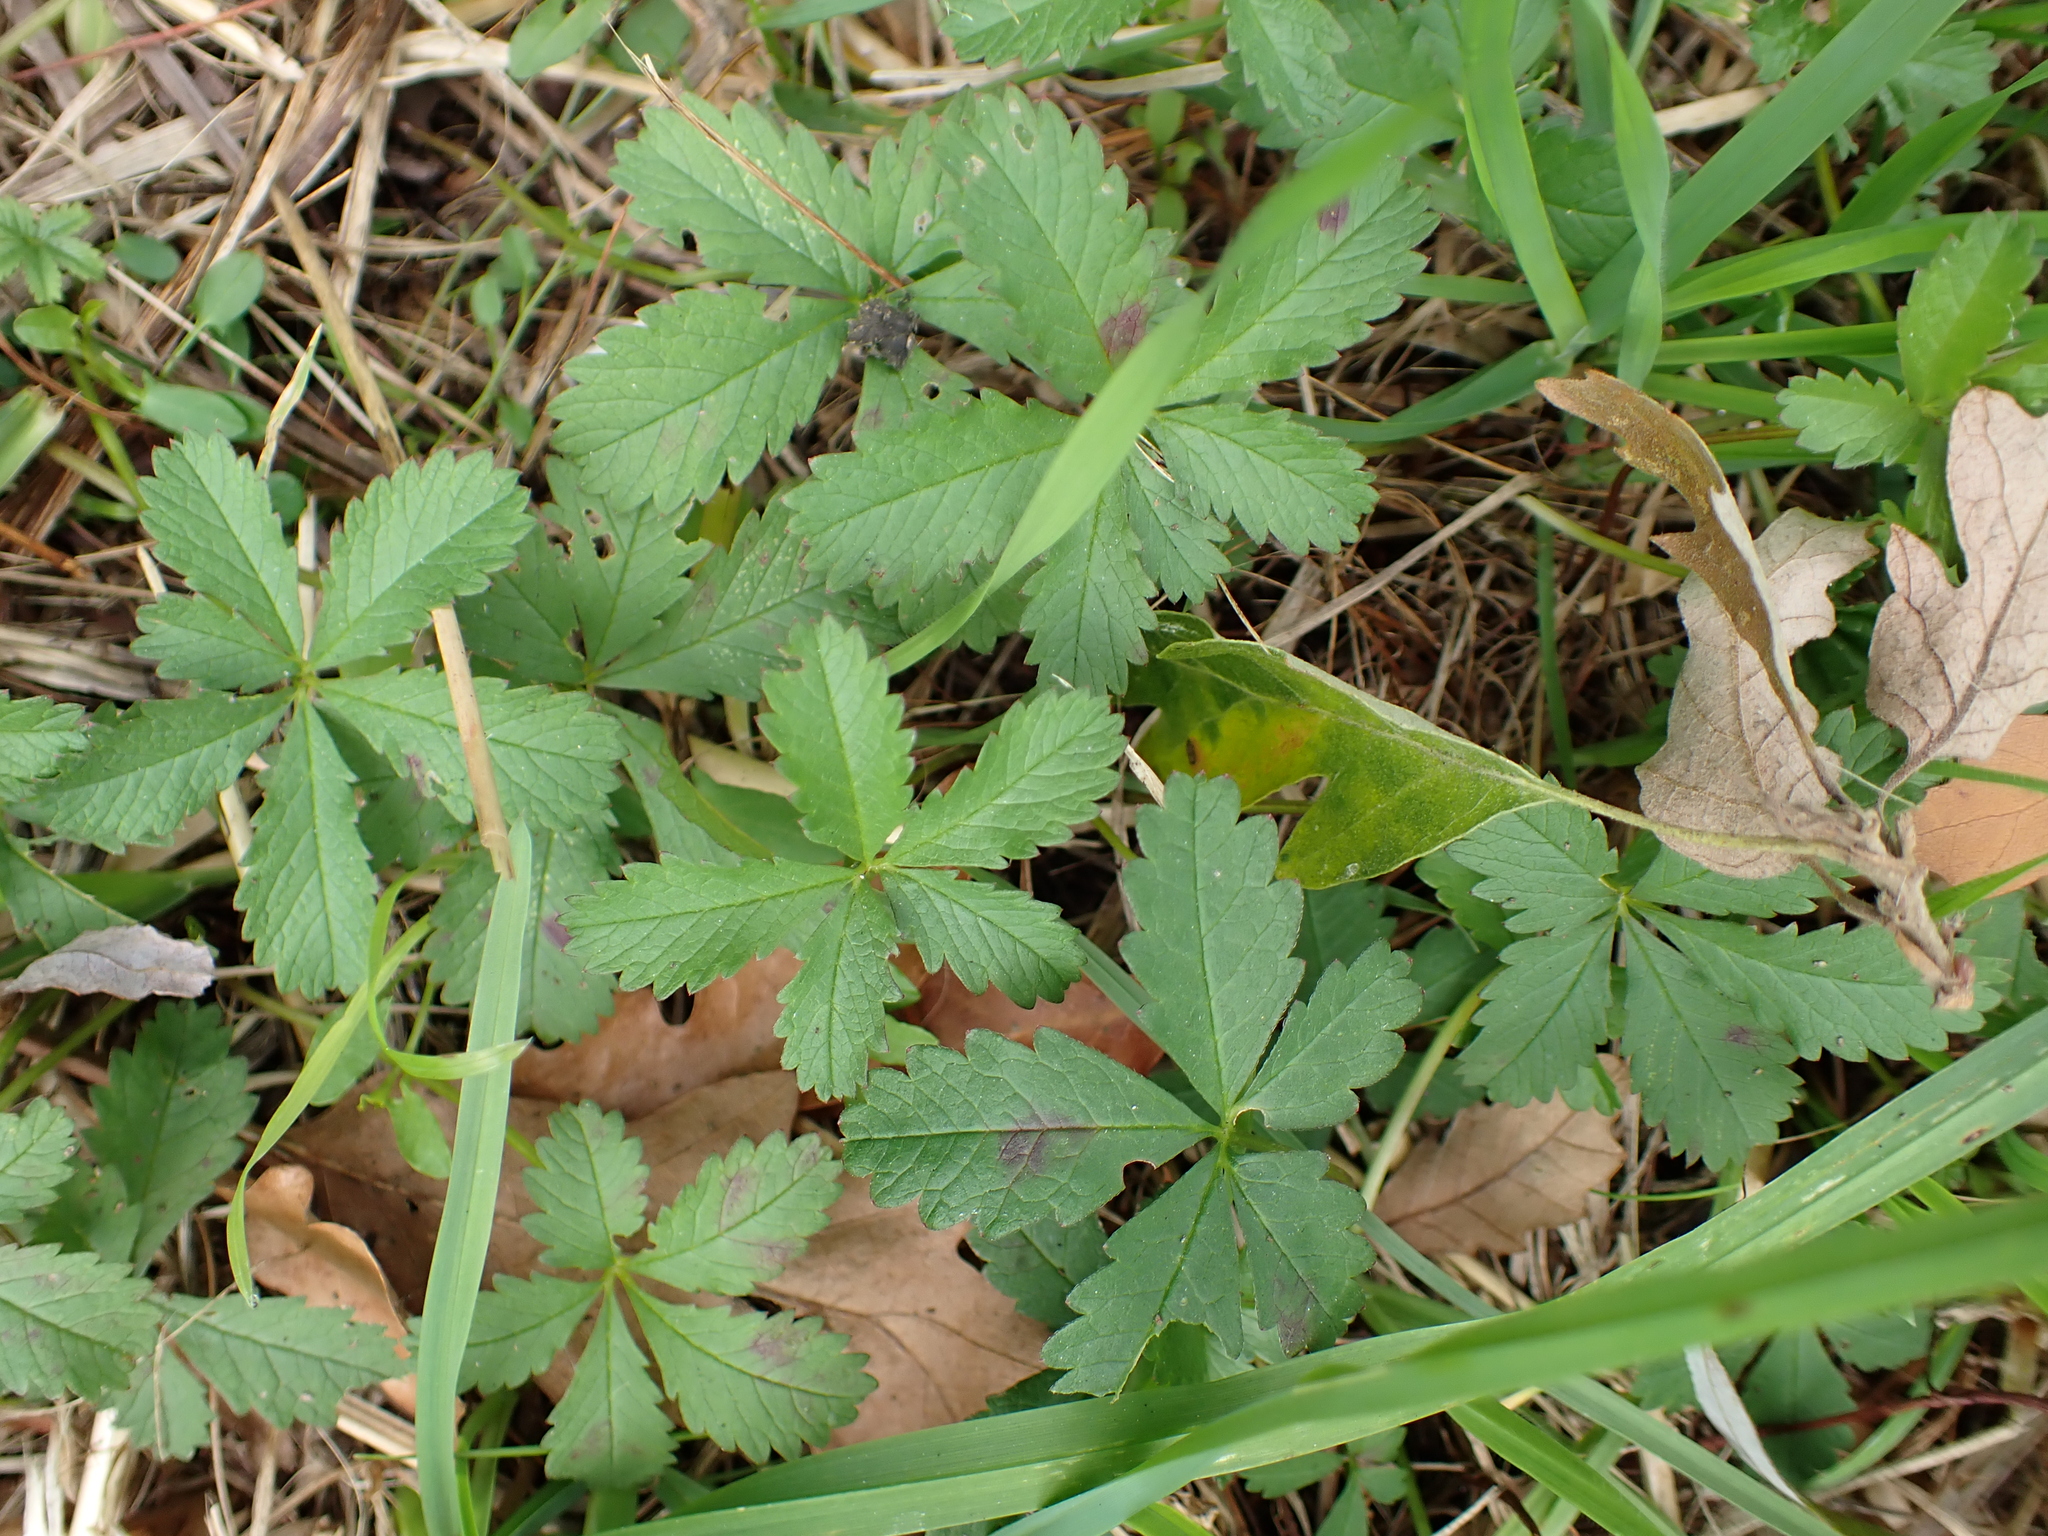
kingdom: Plantae
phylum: Tracheophyta
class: Magnoliopsida
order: Rosales
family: Rosaceae
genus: Potentilla
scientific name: Potentilla reptans
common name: Creeping cinquefoil
